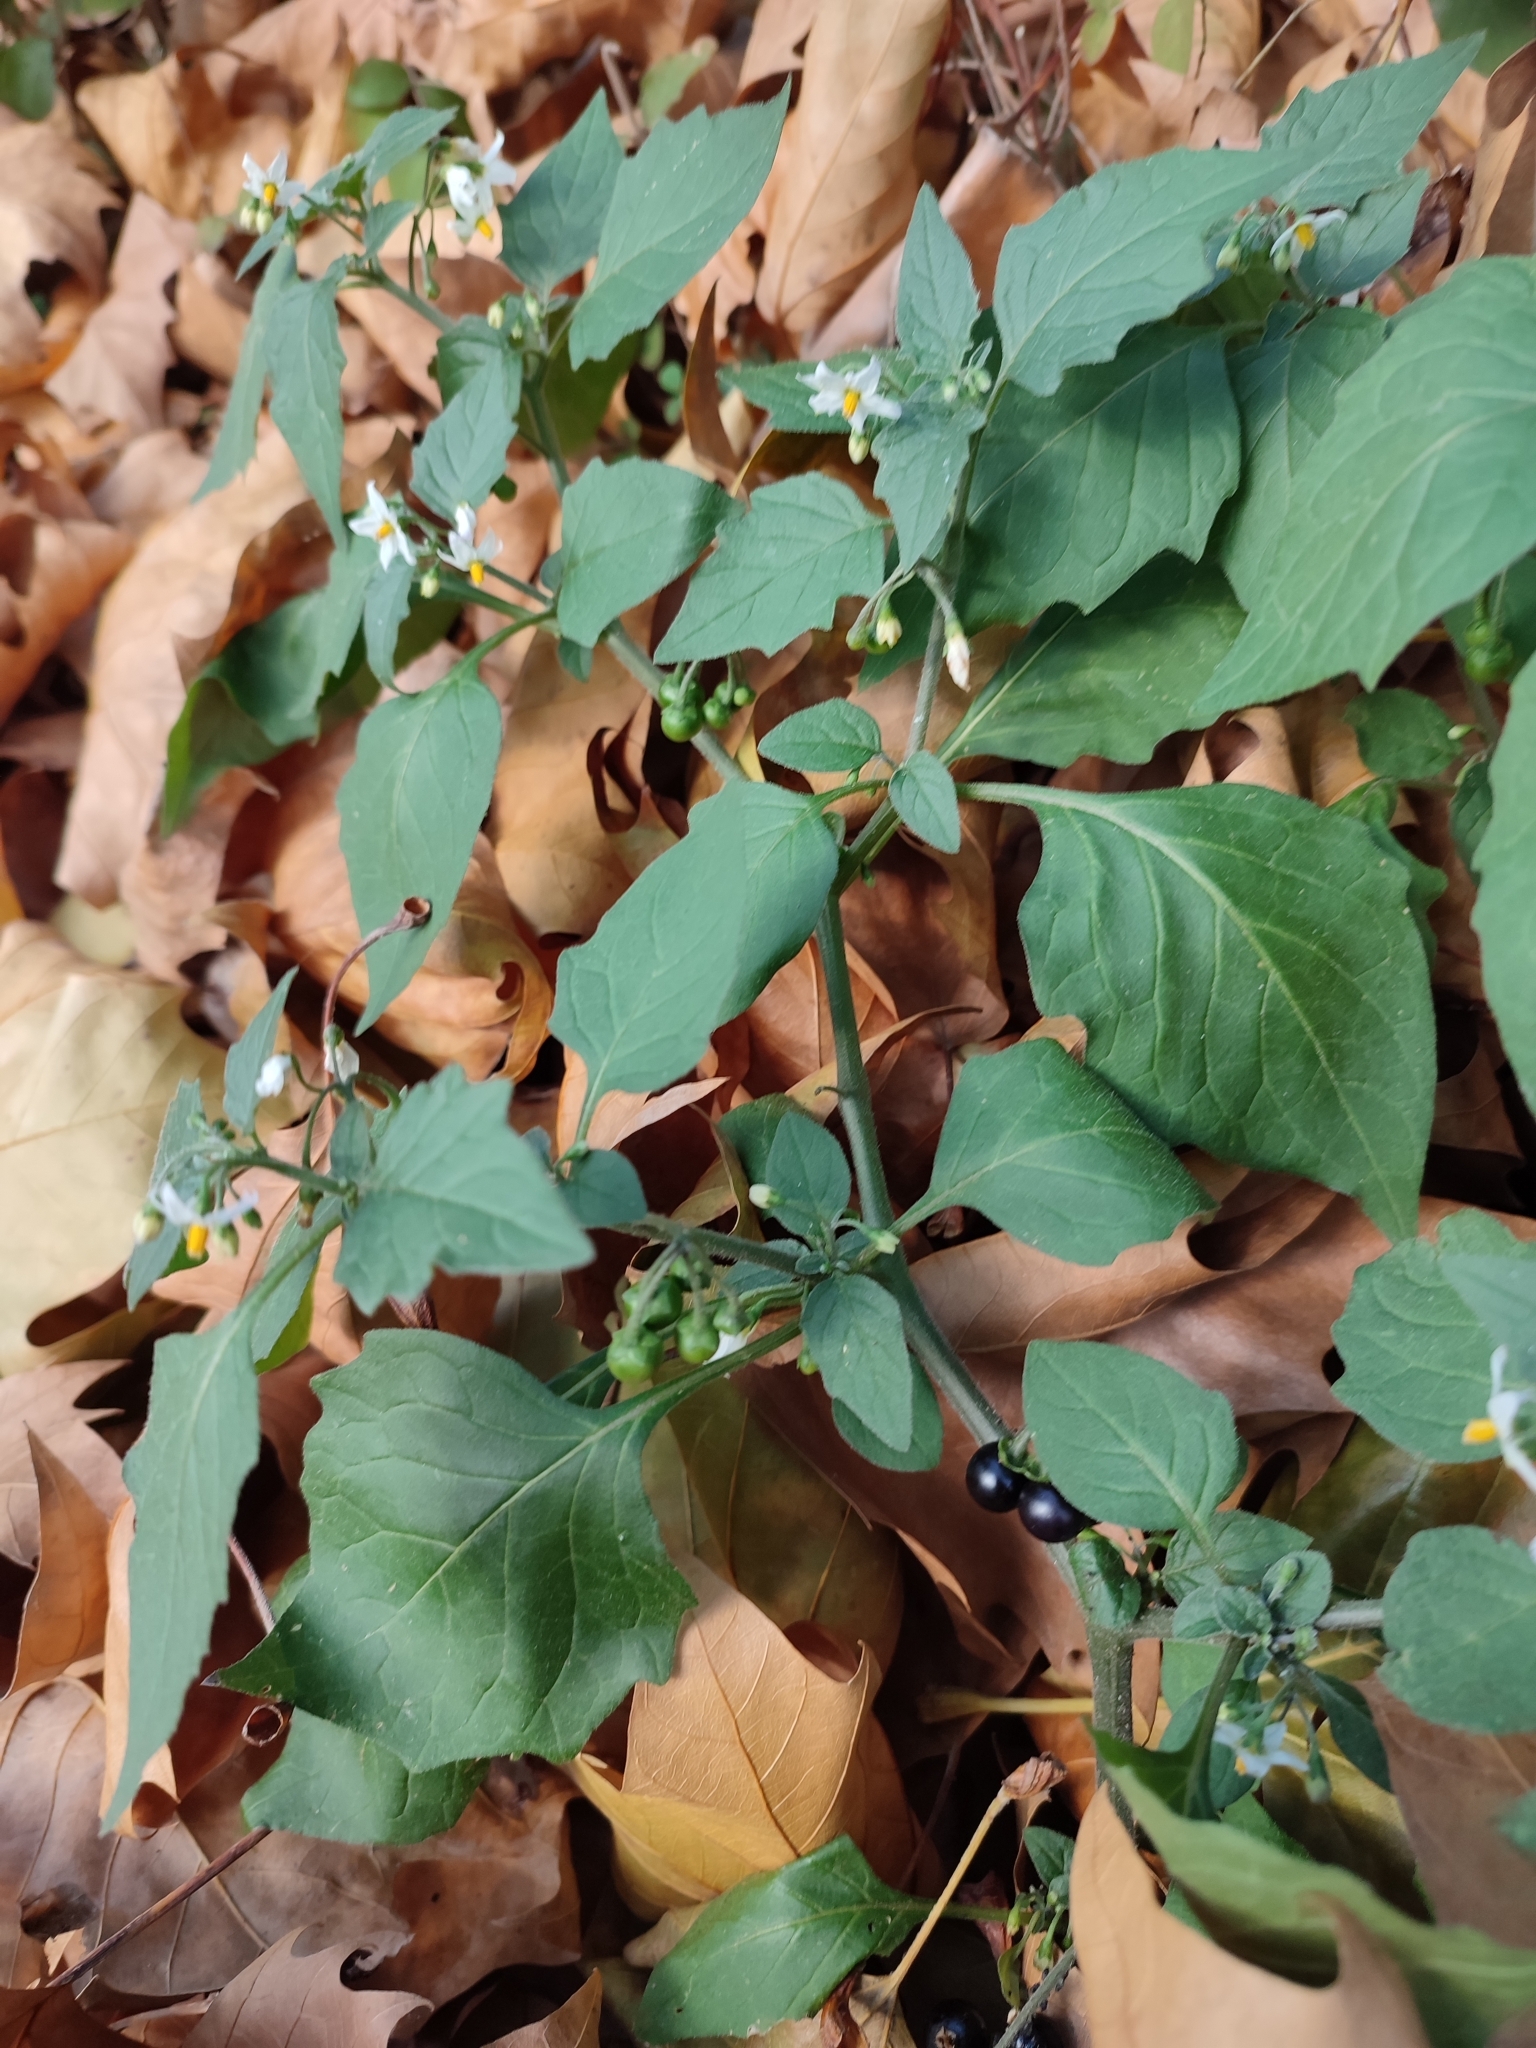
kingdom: Plantae
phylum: Tracheophyta
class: Magnoliopsida
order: Solanales
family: Solanaceae
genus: Solanum
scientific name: Solanum nigrum
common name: Black nightshade
